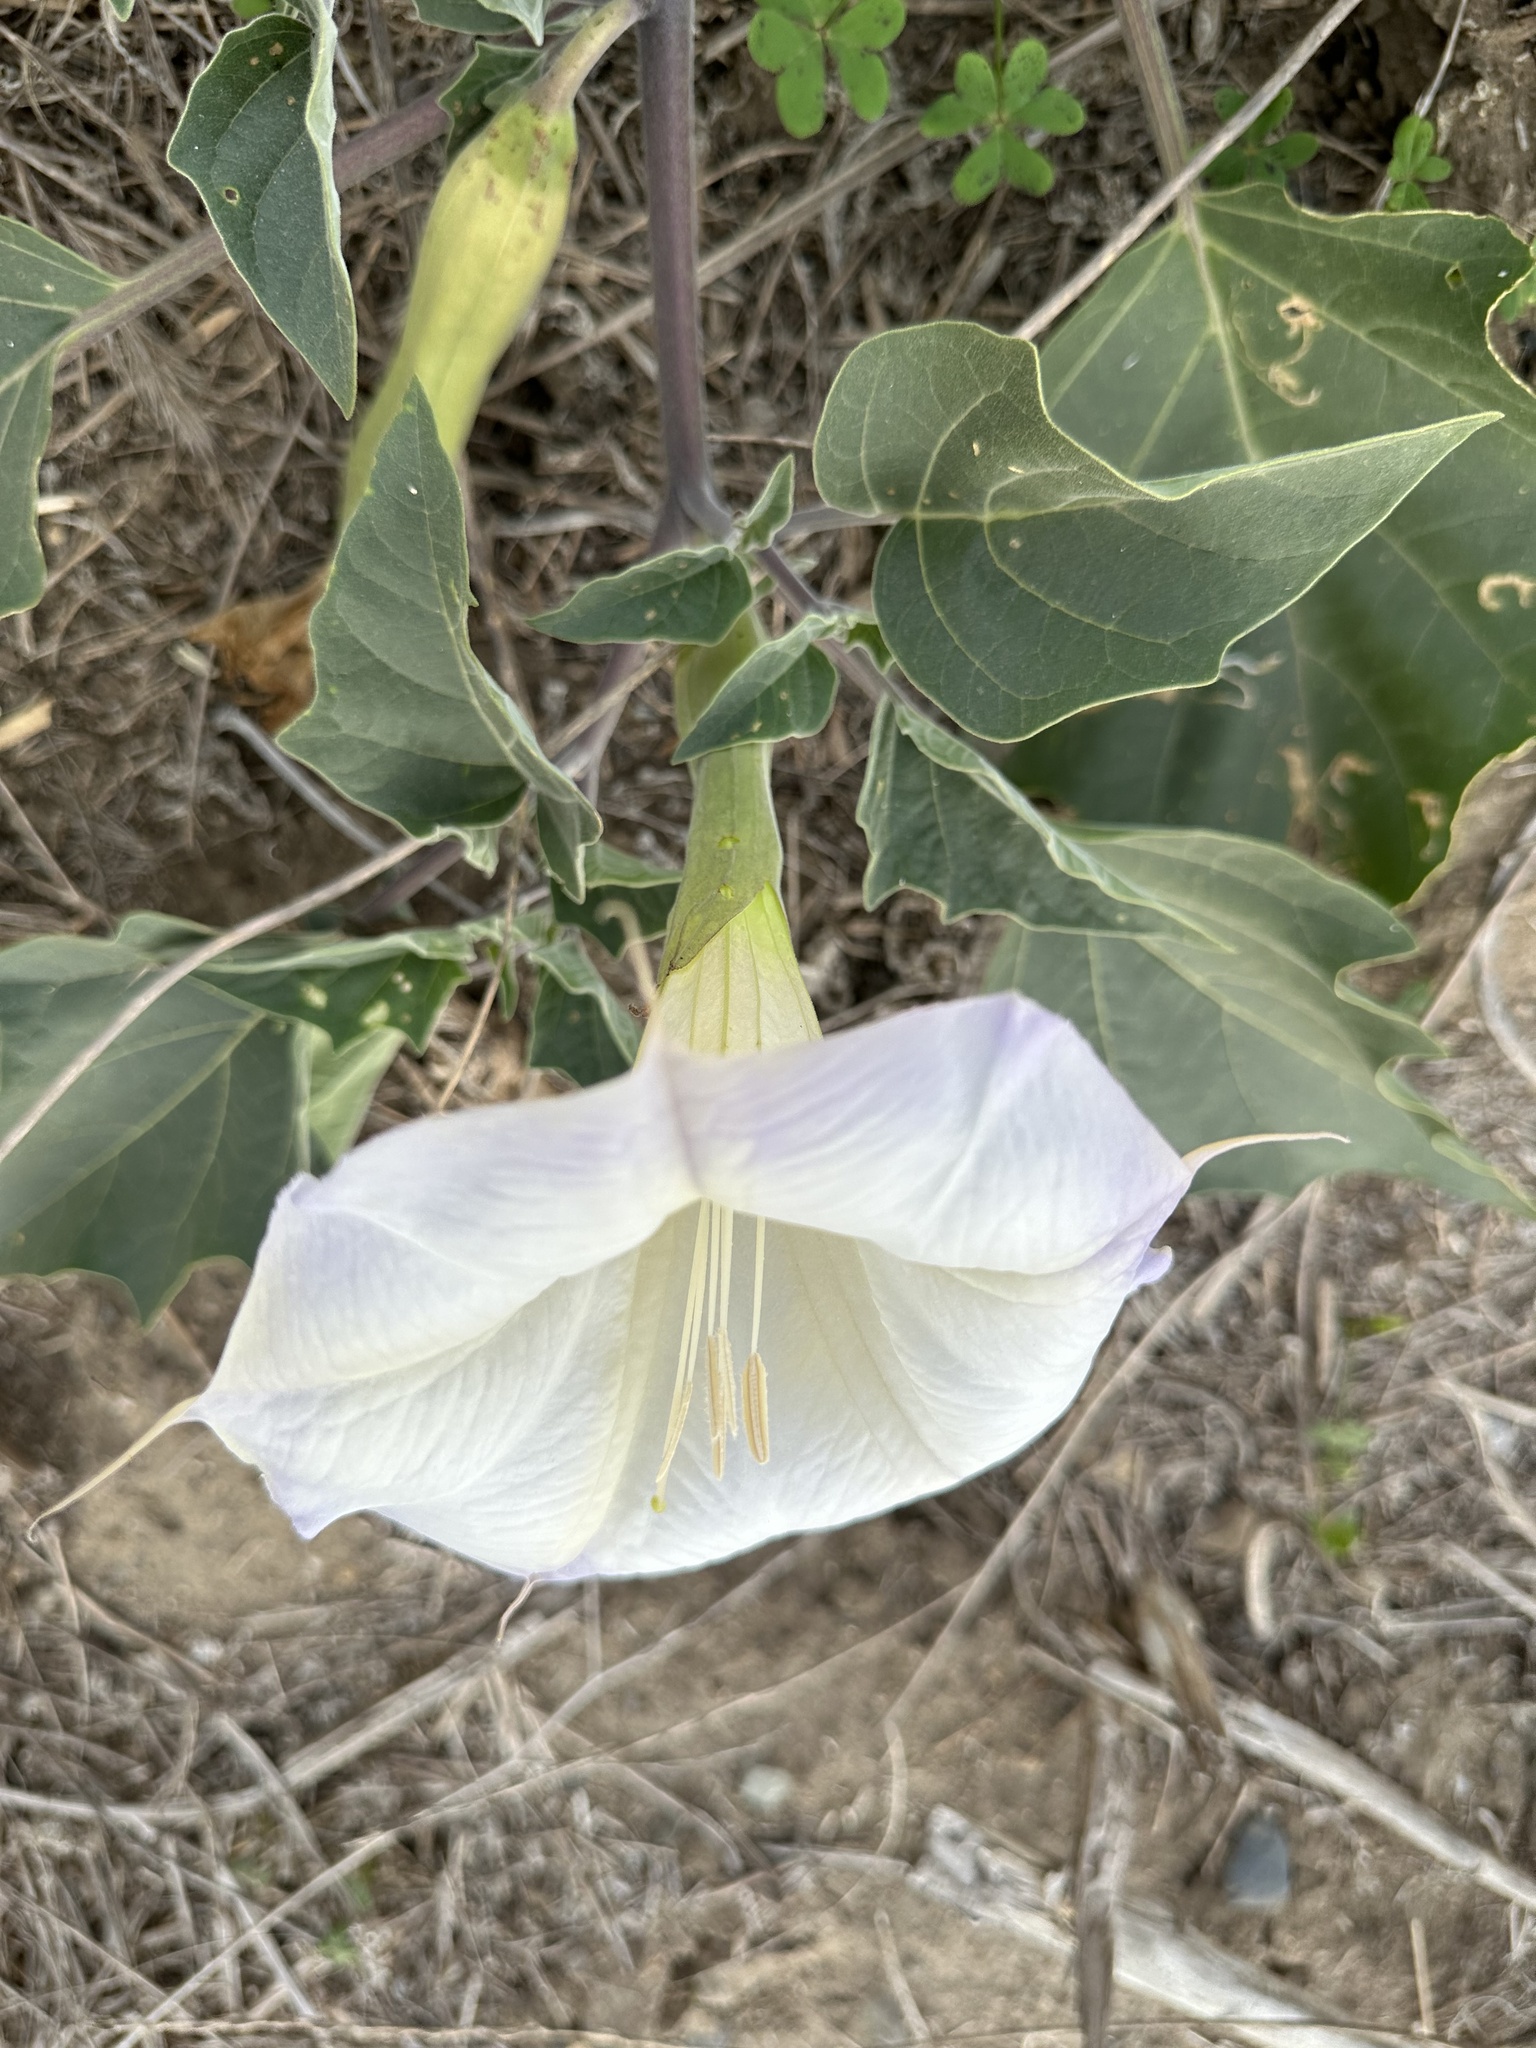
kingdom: Plantae
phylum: Tracheophyta
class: Magnoliopsida
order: Solanales
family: Solanaceae
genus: Datura
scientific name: Datura wrightii
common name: Sacred thorn-apple
